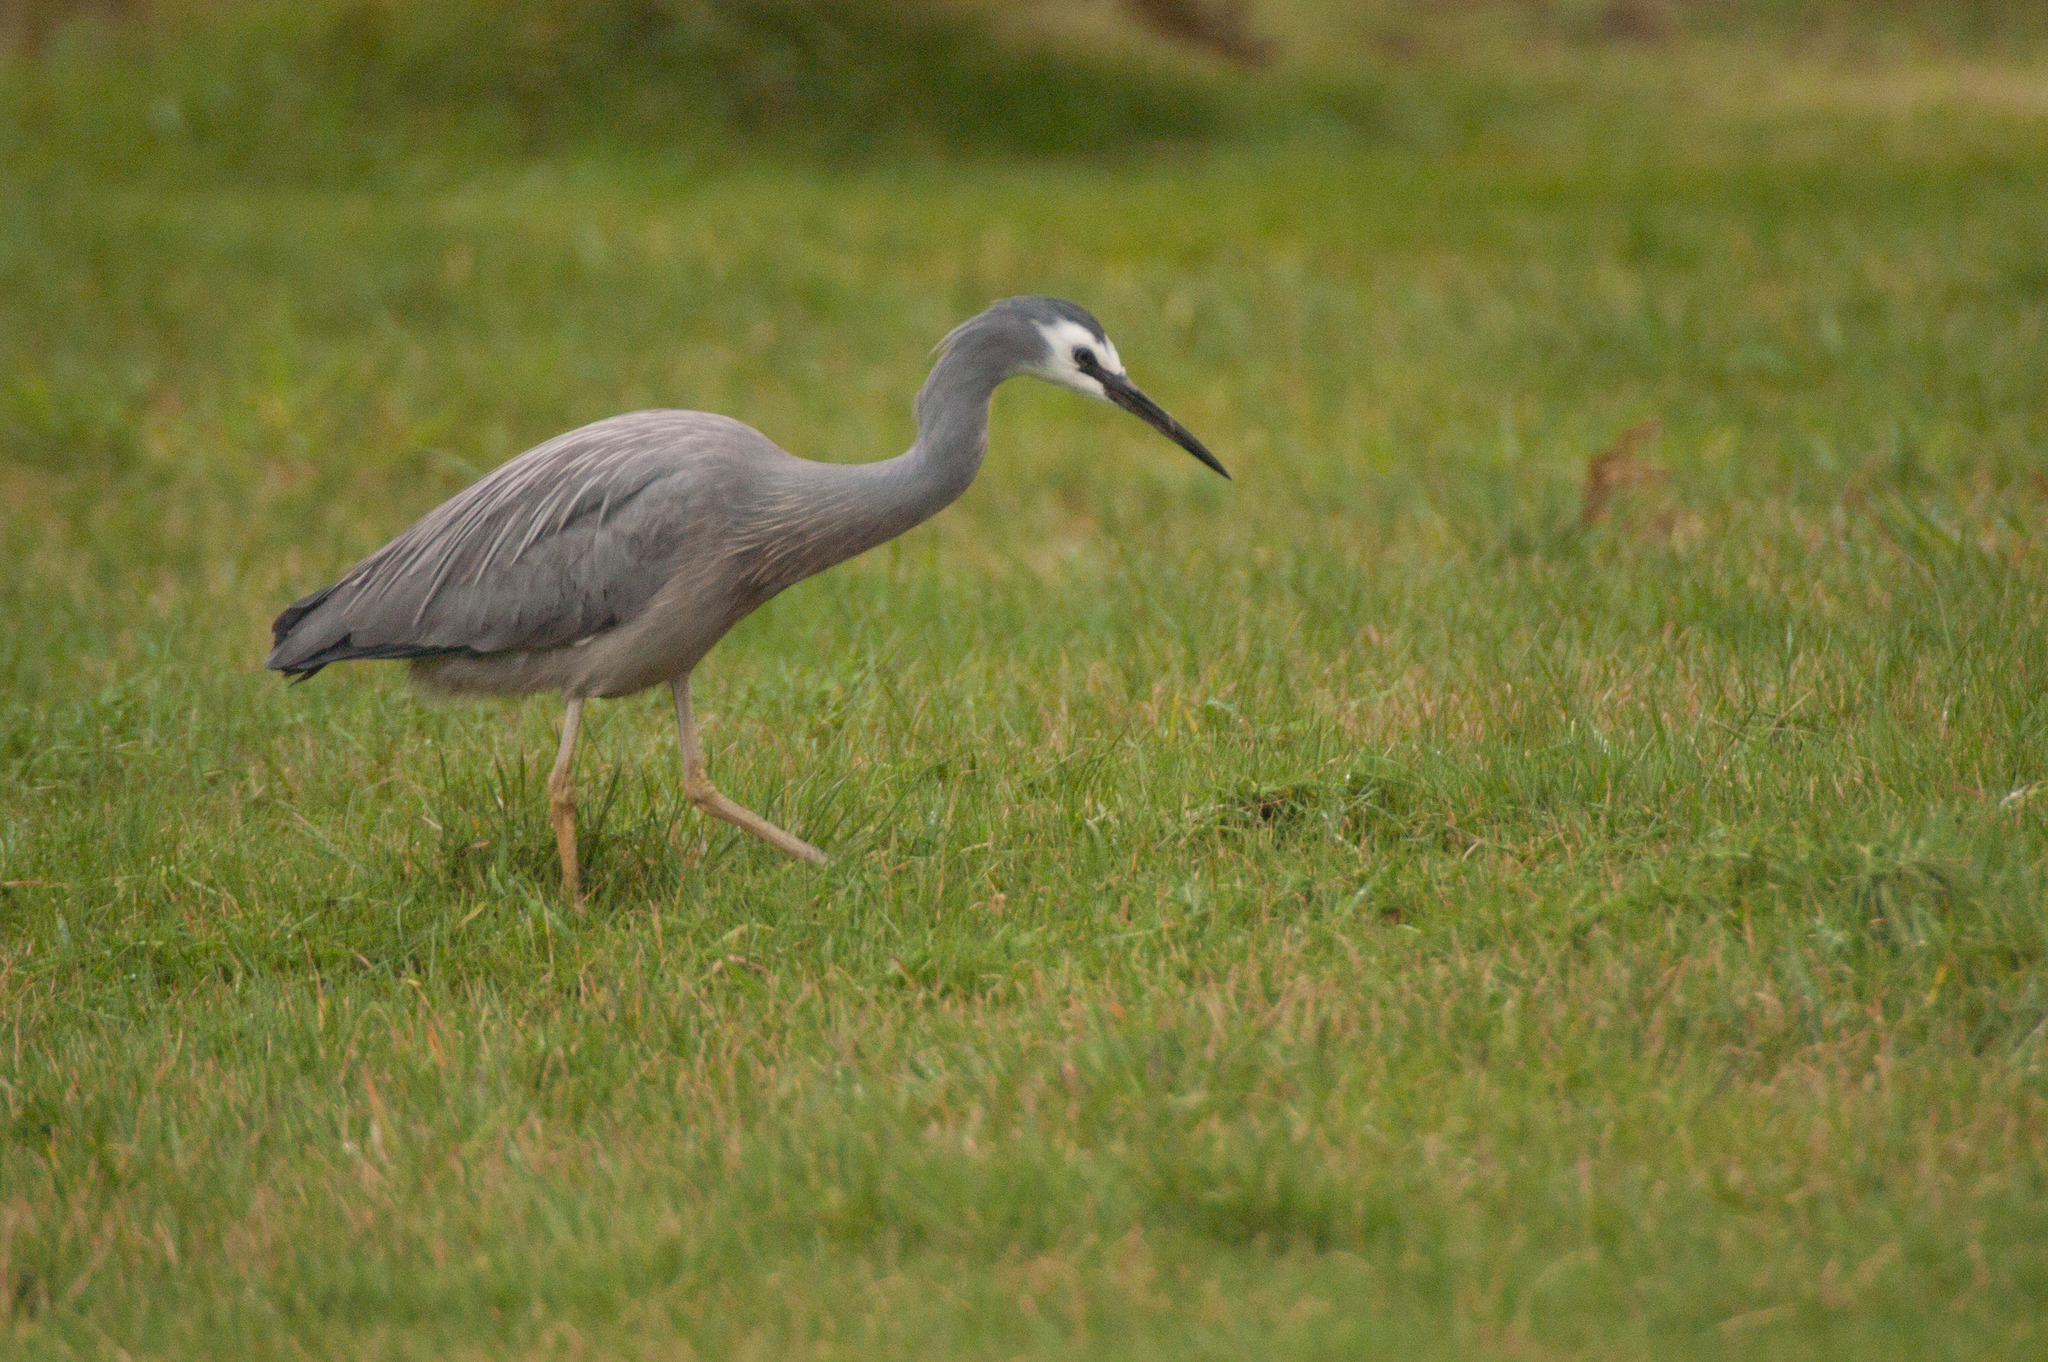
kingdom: Animalia
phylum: Chordata
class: Aves
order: Pelecaniformes
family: Ardeidae
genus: Egretta
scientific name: Egretta novaehollandiae
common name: White-faced heron
